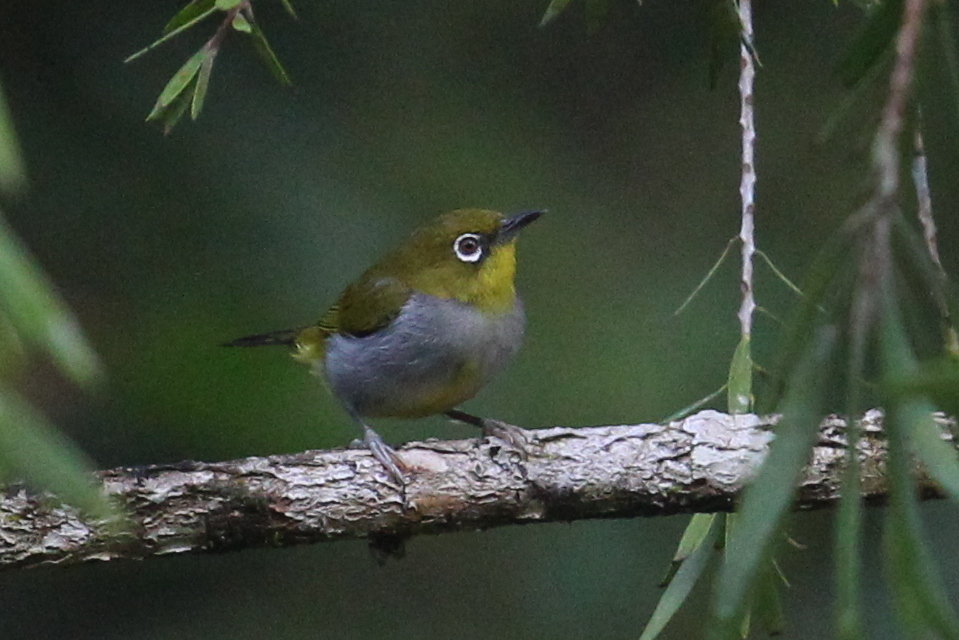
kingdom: Animalia
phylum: Chordata
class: Aves
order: Passeriformes
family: Zosteropidae
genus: Zosterops
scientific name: Zosterops auriventer
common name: Hume's white-eye
